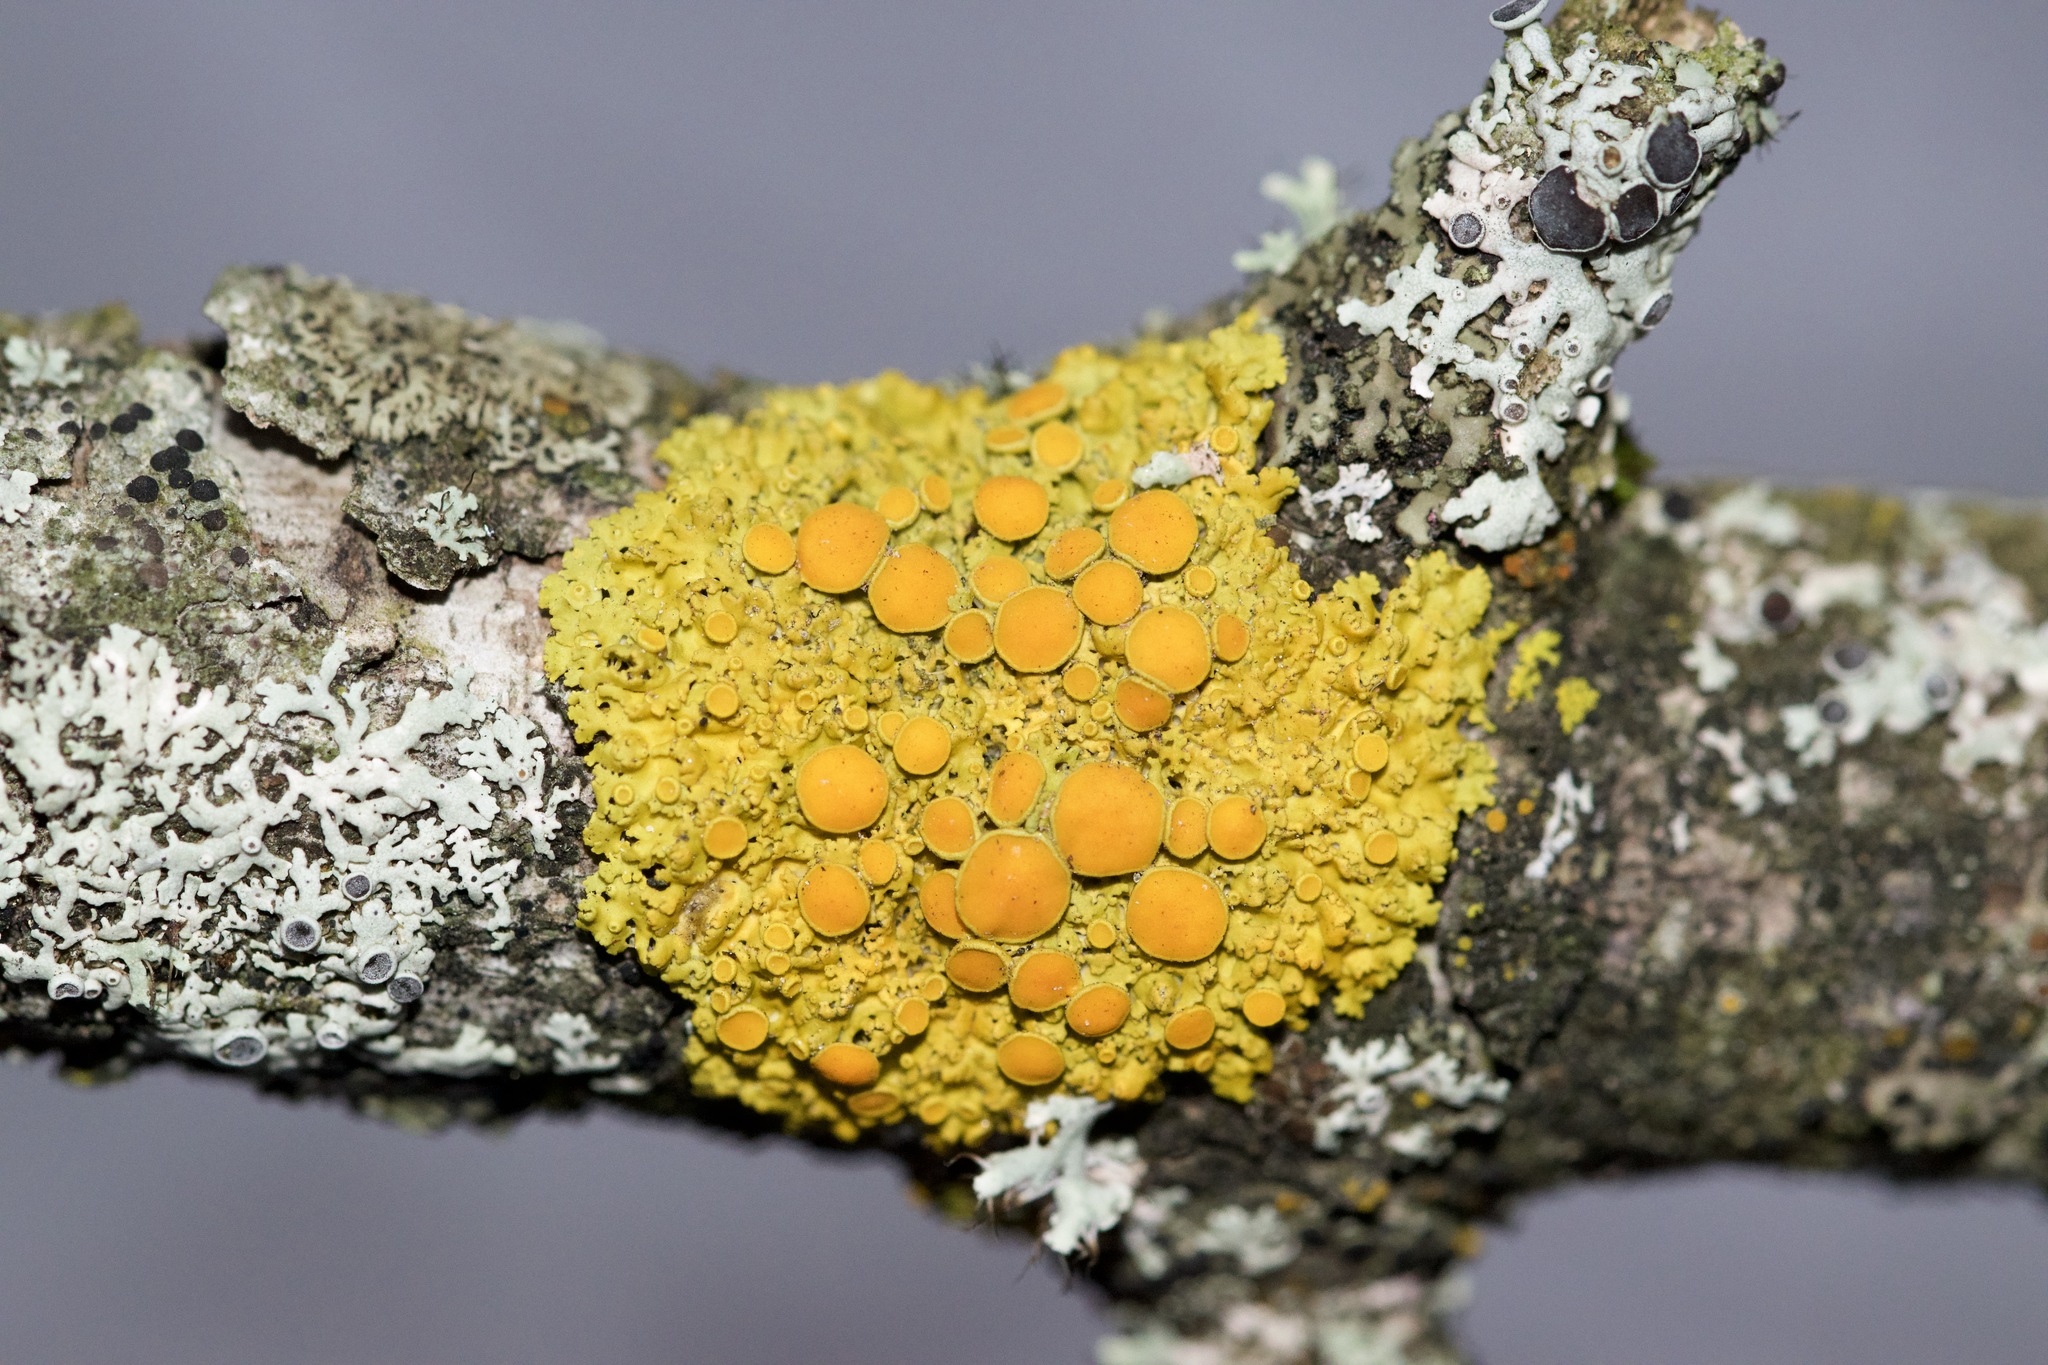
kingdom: Fungi
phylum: Ascomycota
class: Lecanoromycetes
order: Teloschistales
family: Teloschistaceae
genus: Gallowayella
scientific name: Gallowayella hasseana
